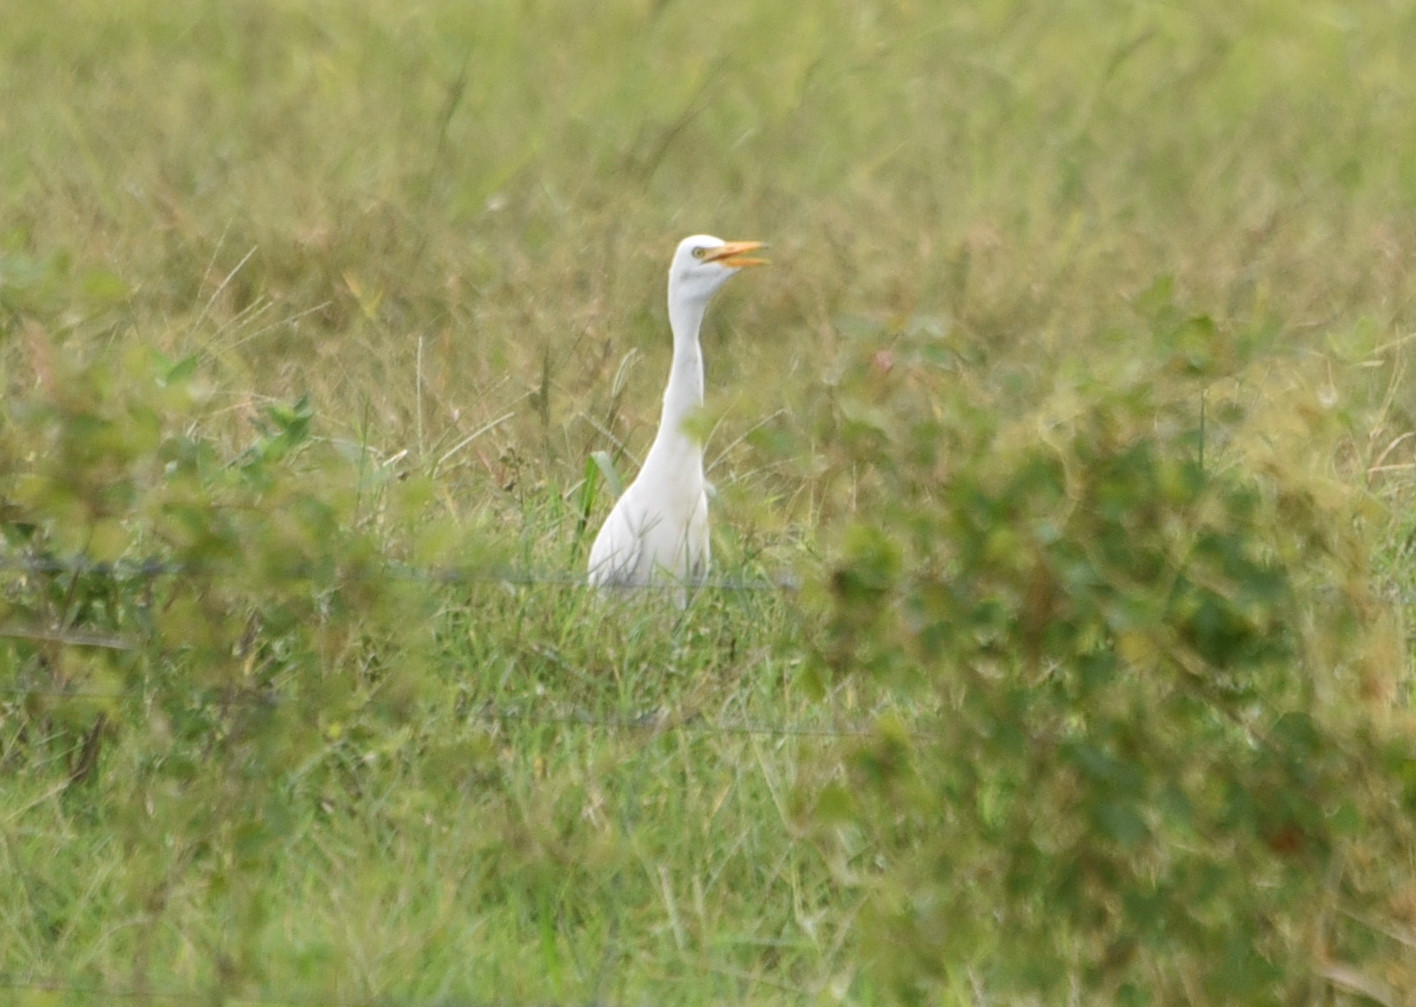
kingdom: Animalia
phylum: Chordata
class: Aves
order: Pelecaniformes
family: Ardeidae
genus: Bubulcus
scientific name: Bubulcus ibis
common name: Cattle egret
